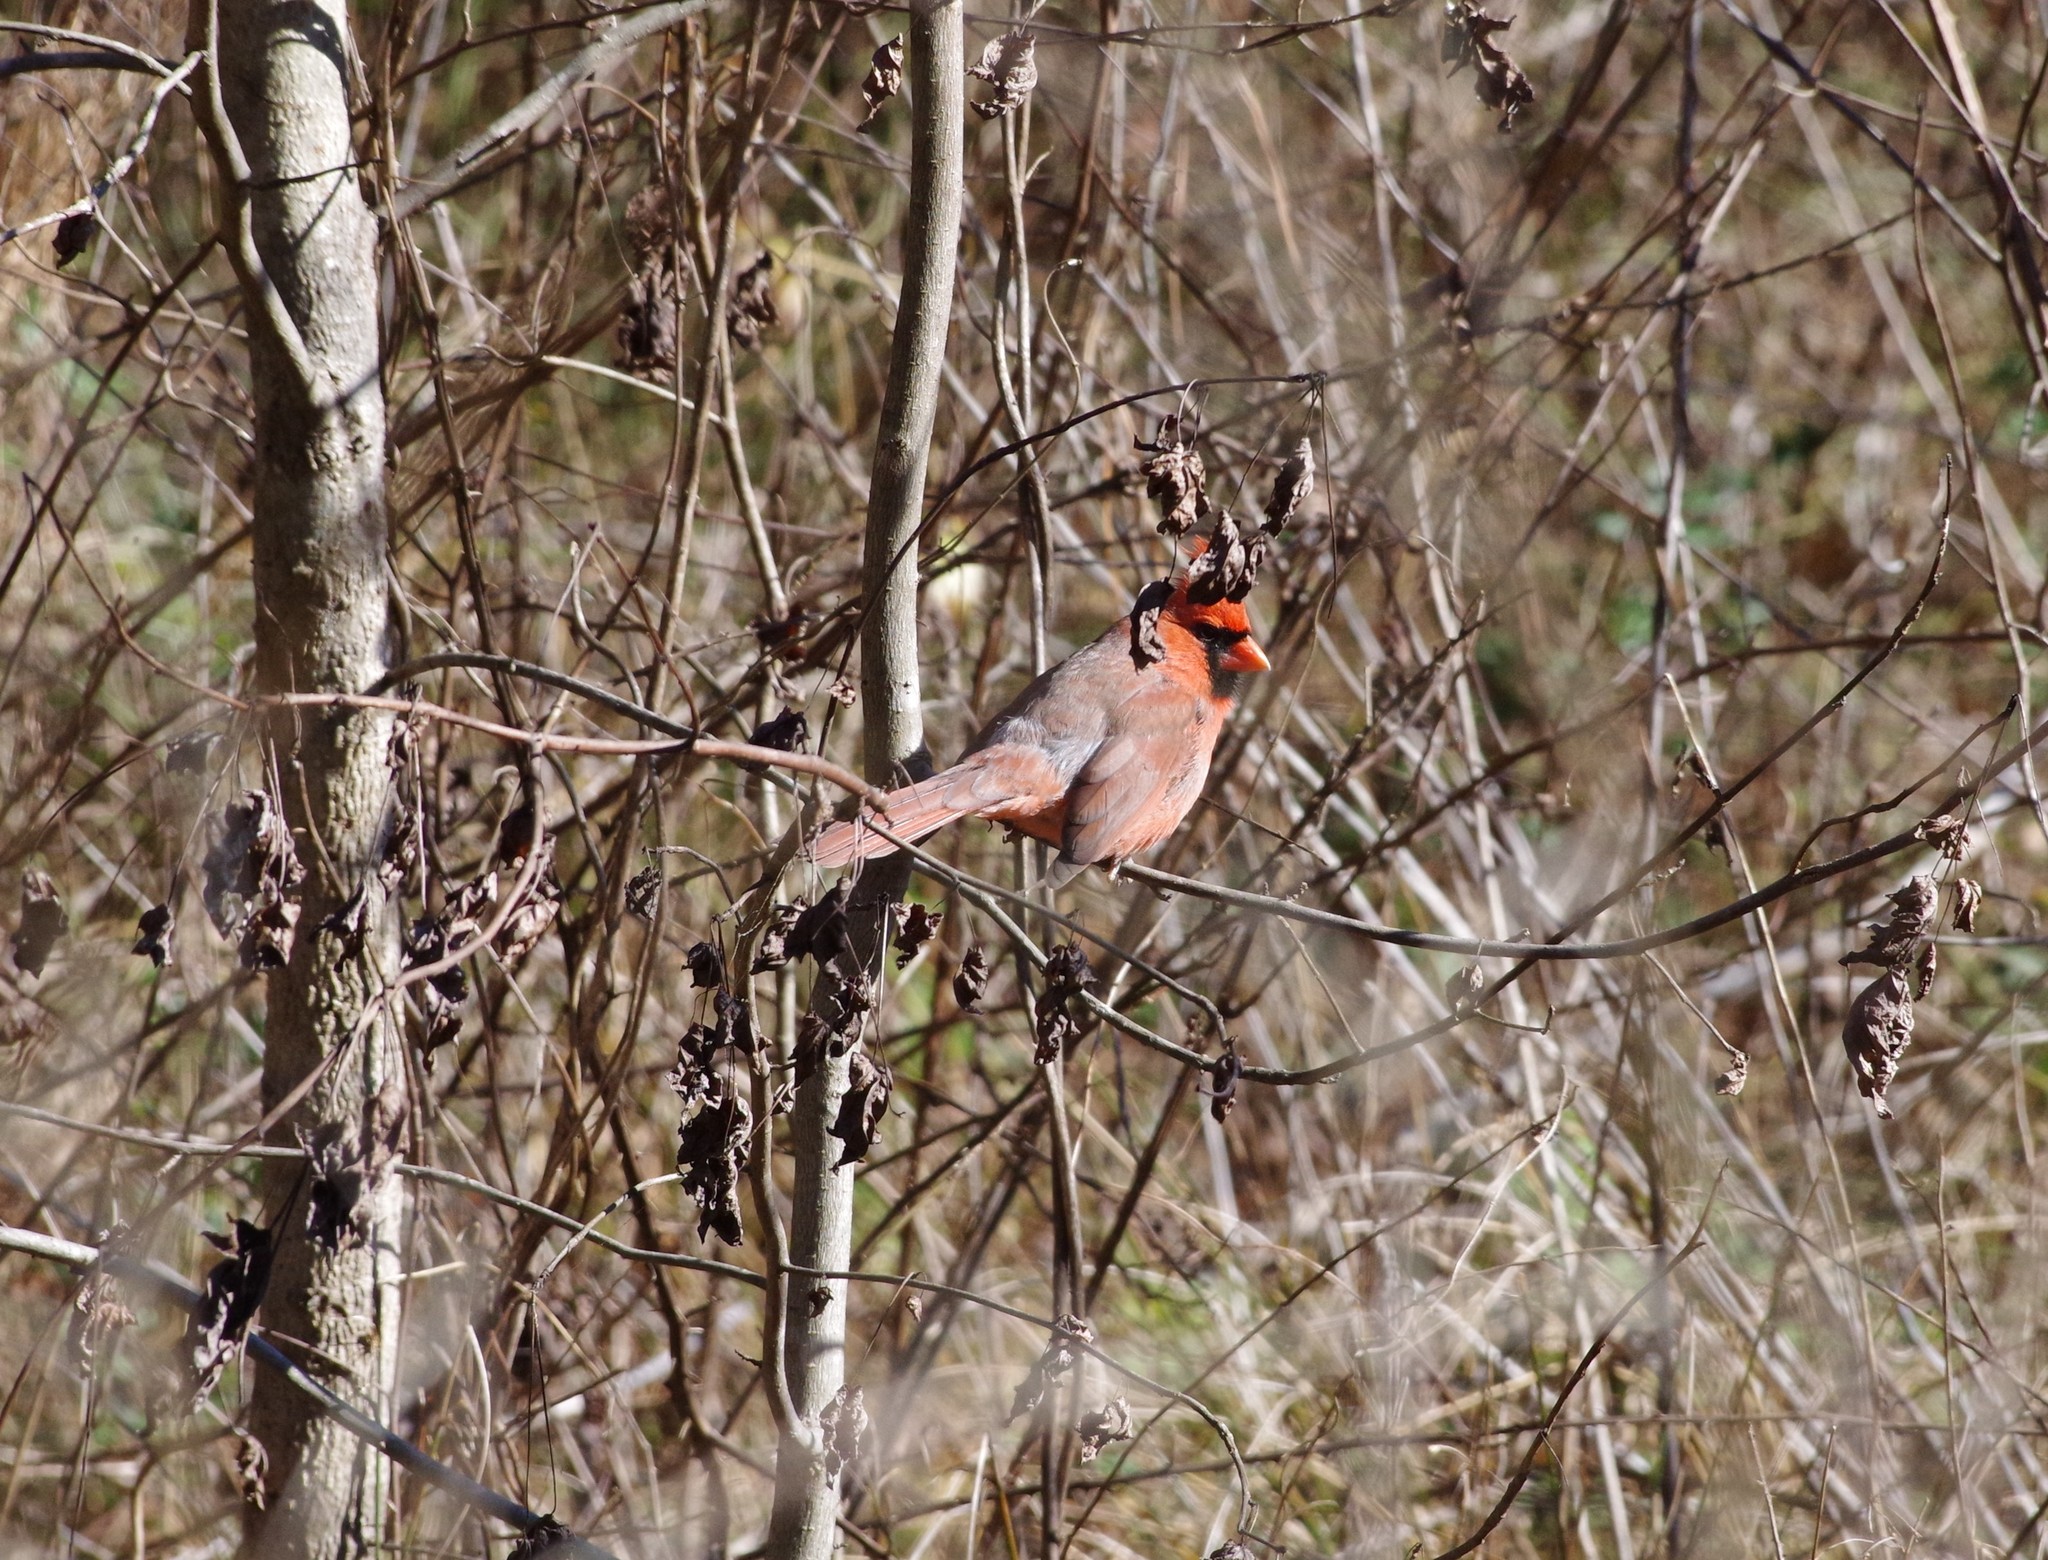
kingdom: Animalia
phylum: Chordata
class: Aves
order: Passeriformes
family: Cardinalidae
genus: Cardinalis
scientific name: Cardinalis cardinalis
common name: Northern cardinal
